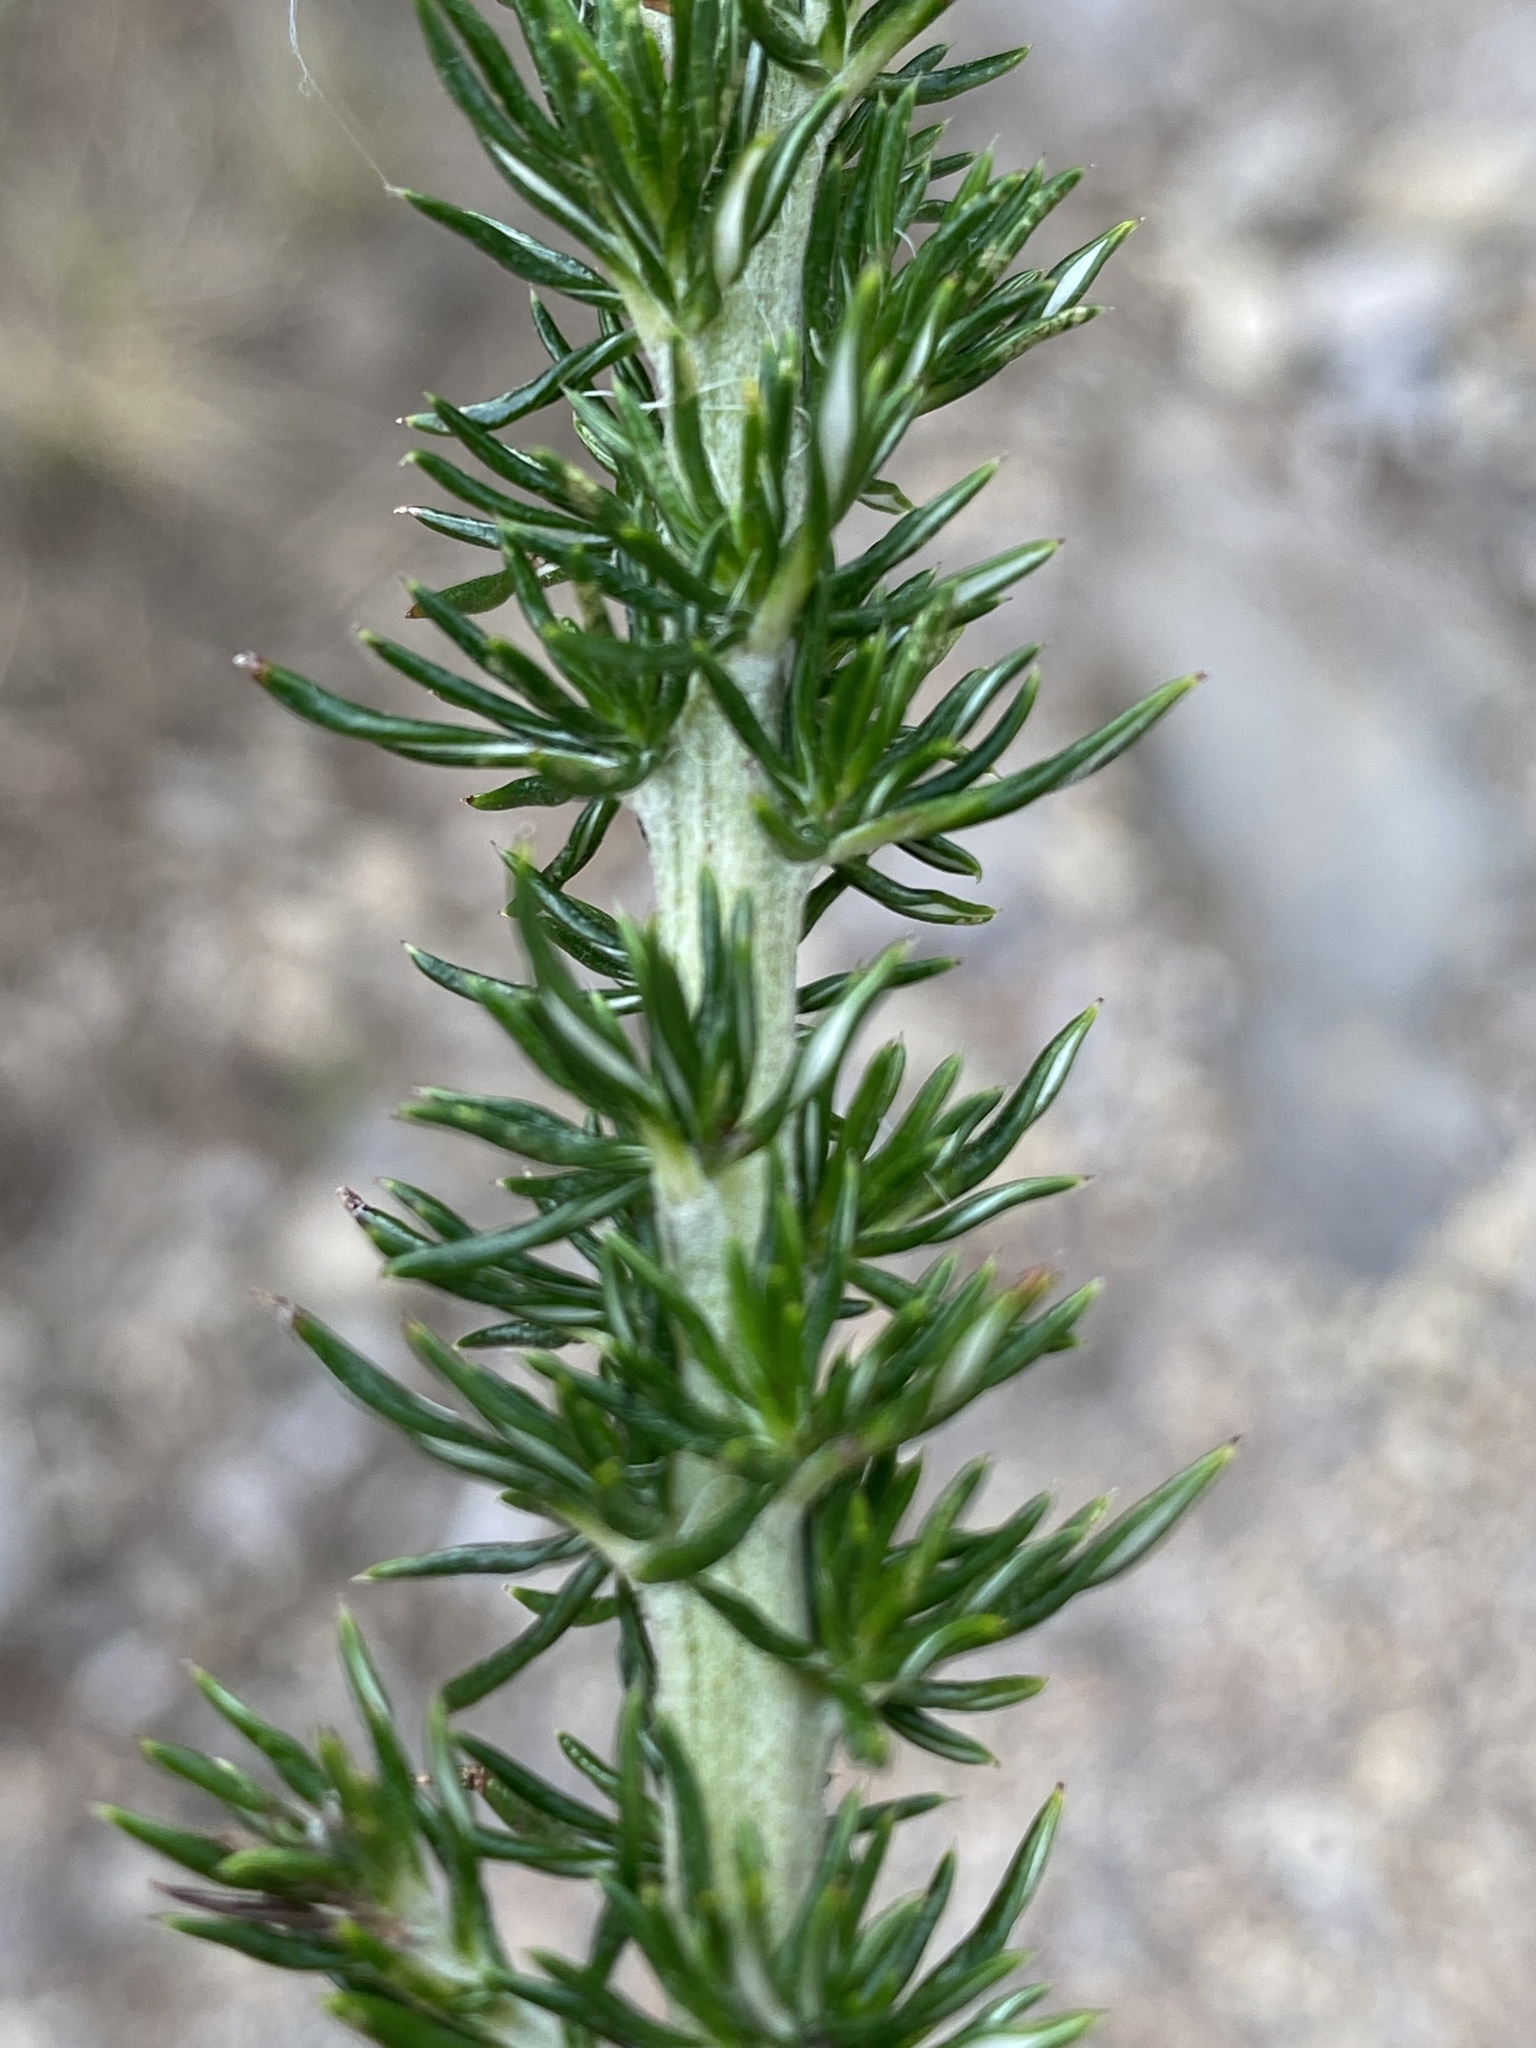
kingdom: Plantae
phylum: Tracheophyta
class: Magnoliopsida
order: Asterales
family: Asteraceae
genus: Metalasia
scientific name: Metalasia trivialis
